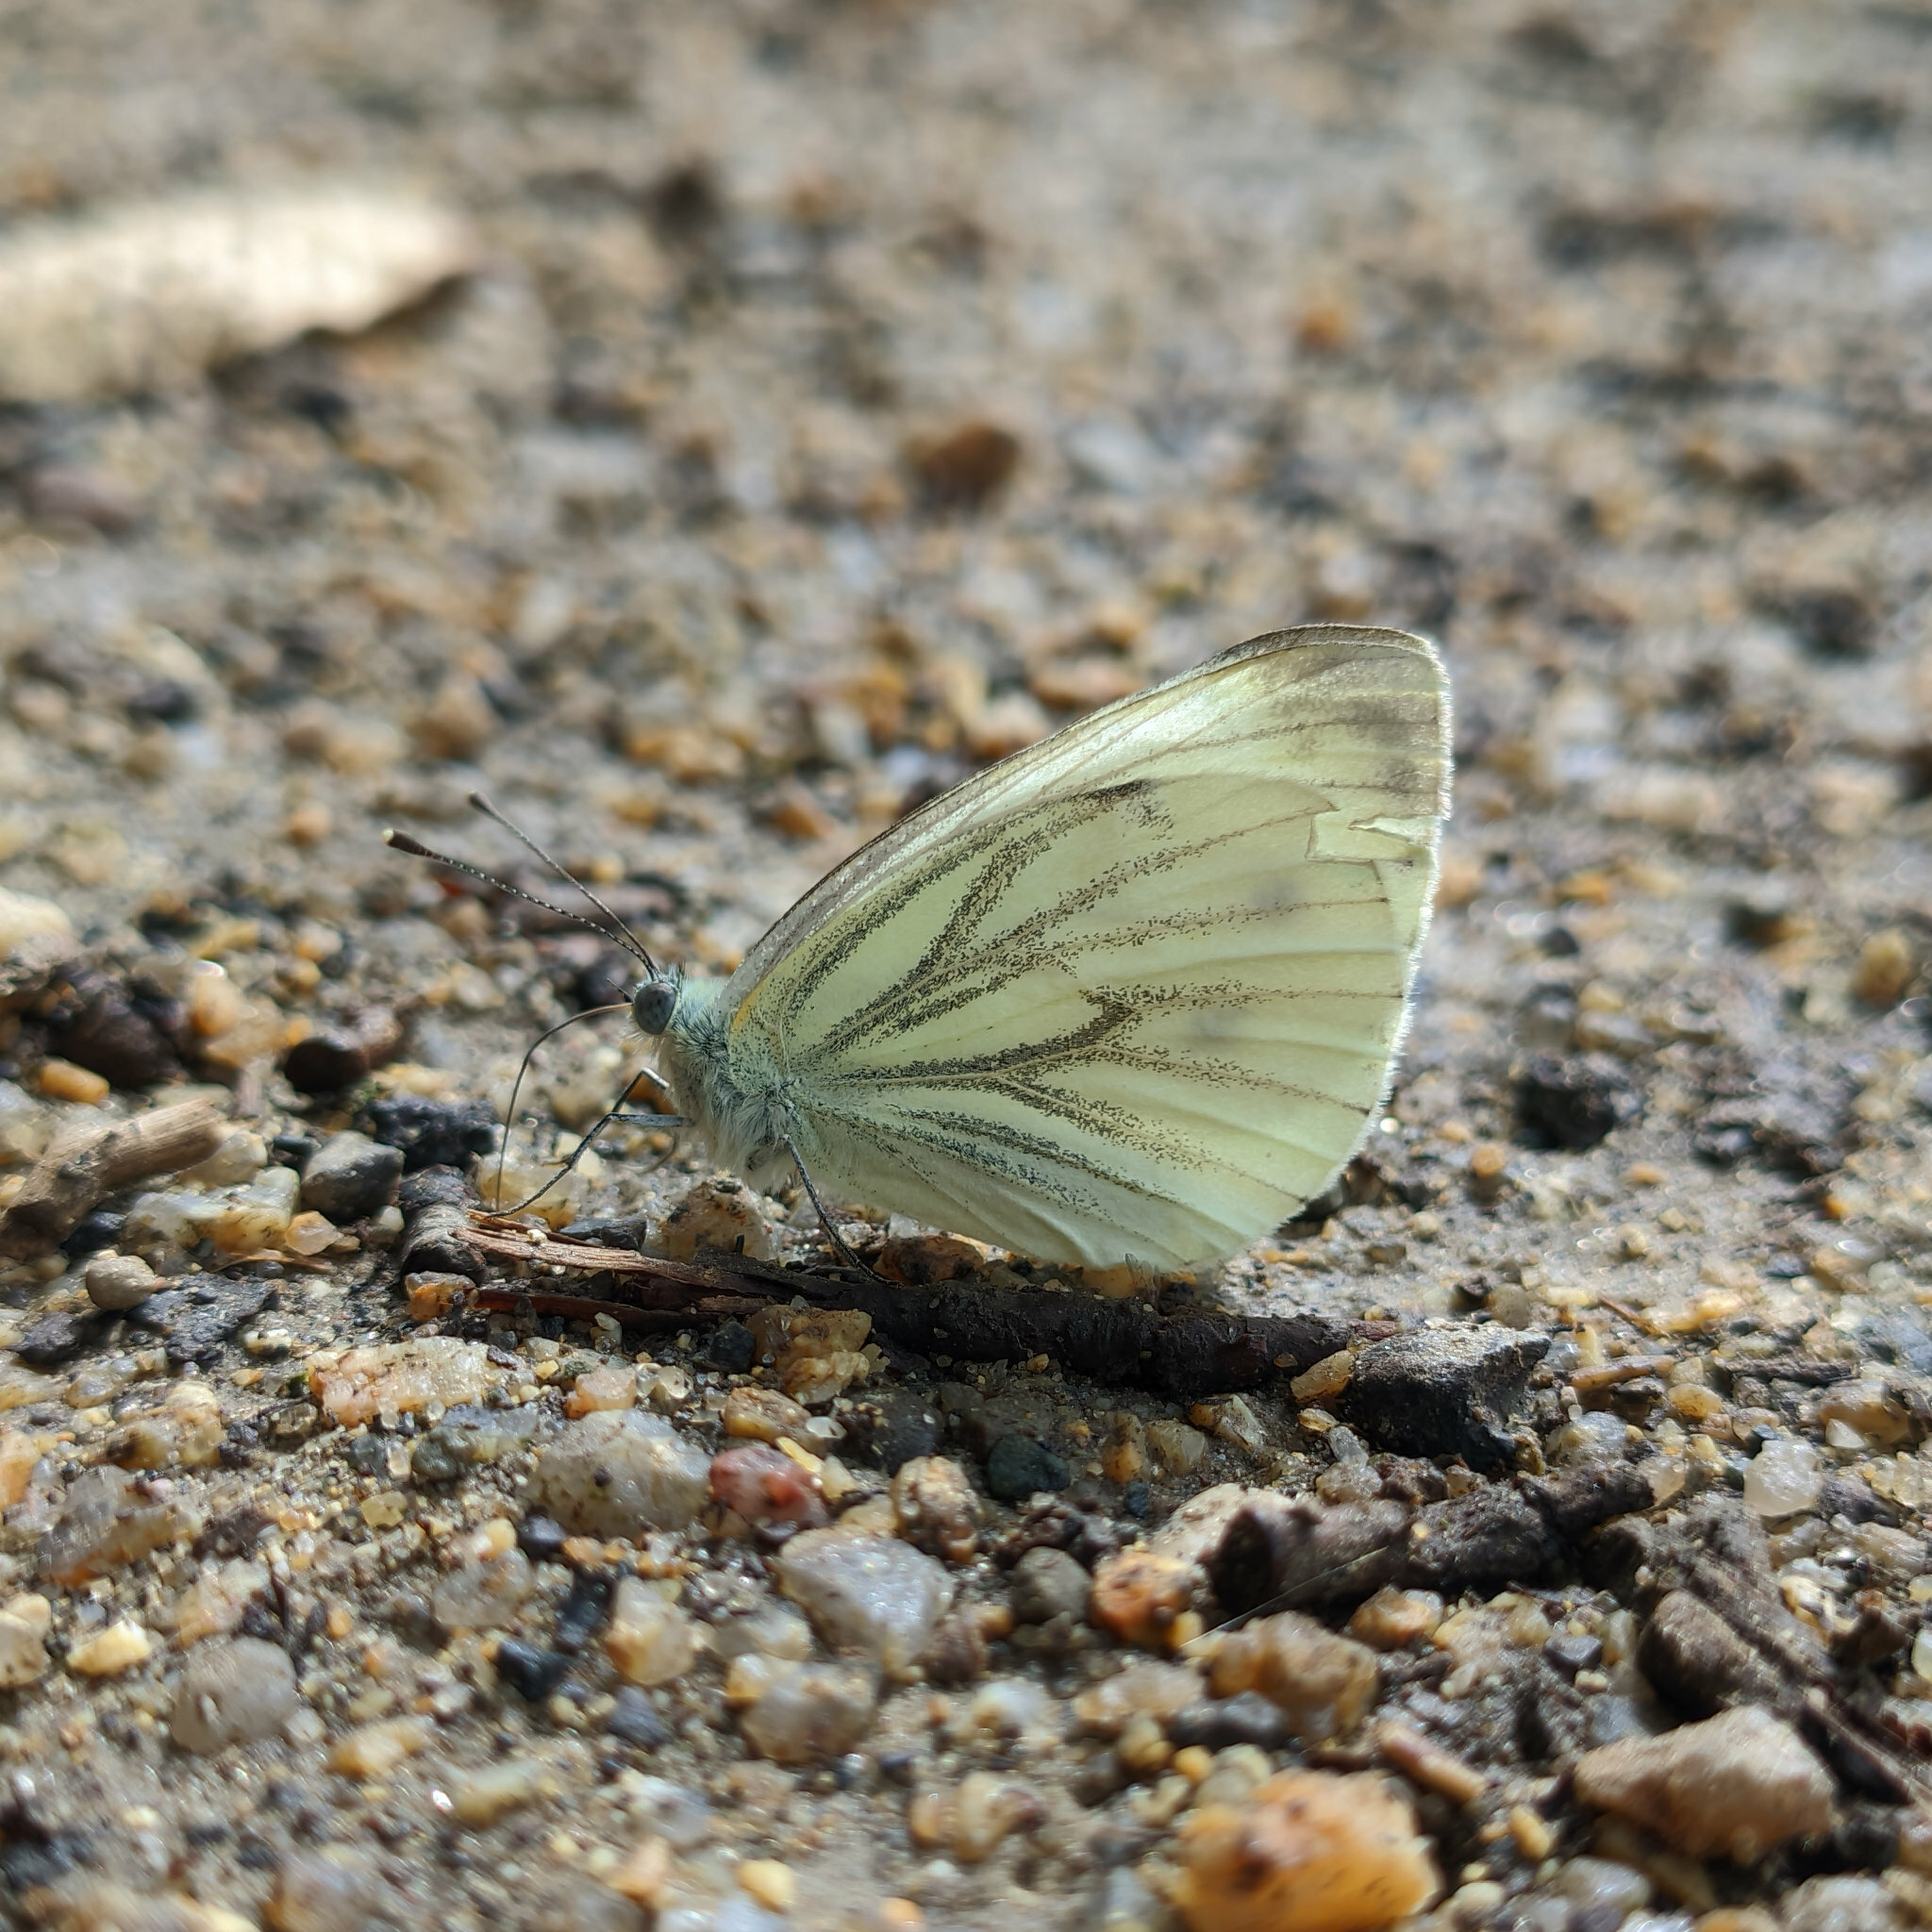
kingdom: Animalia
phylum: Arthropoda
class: Insecta
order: Lepidoptera
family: Pieridae
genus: Pieris
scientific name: Pieris napi
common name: Green-veined white
